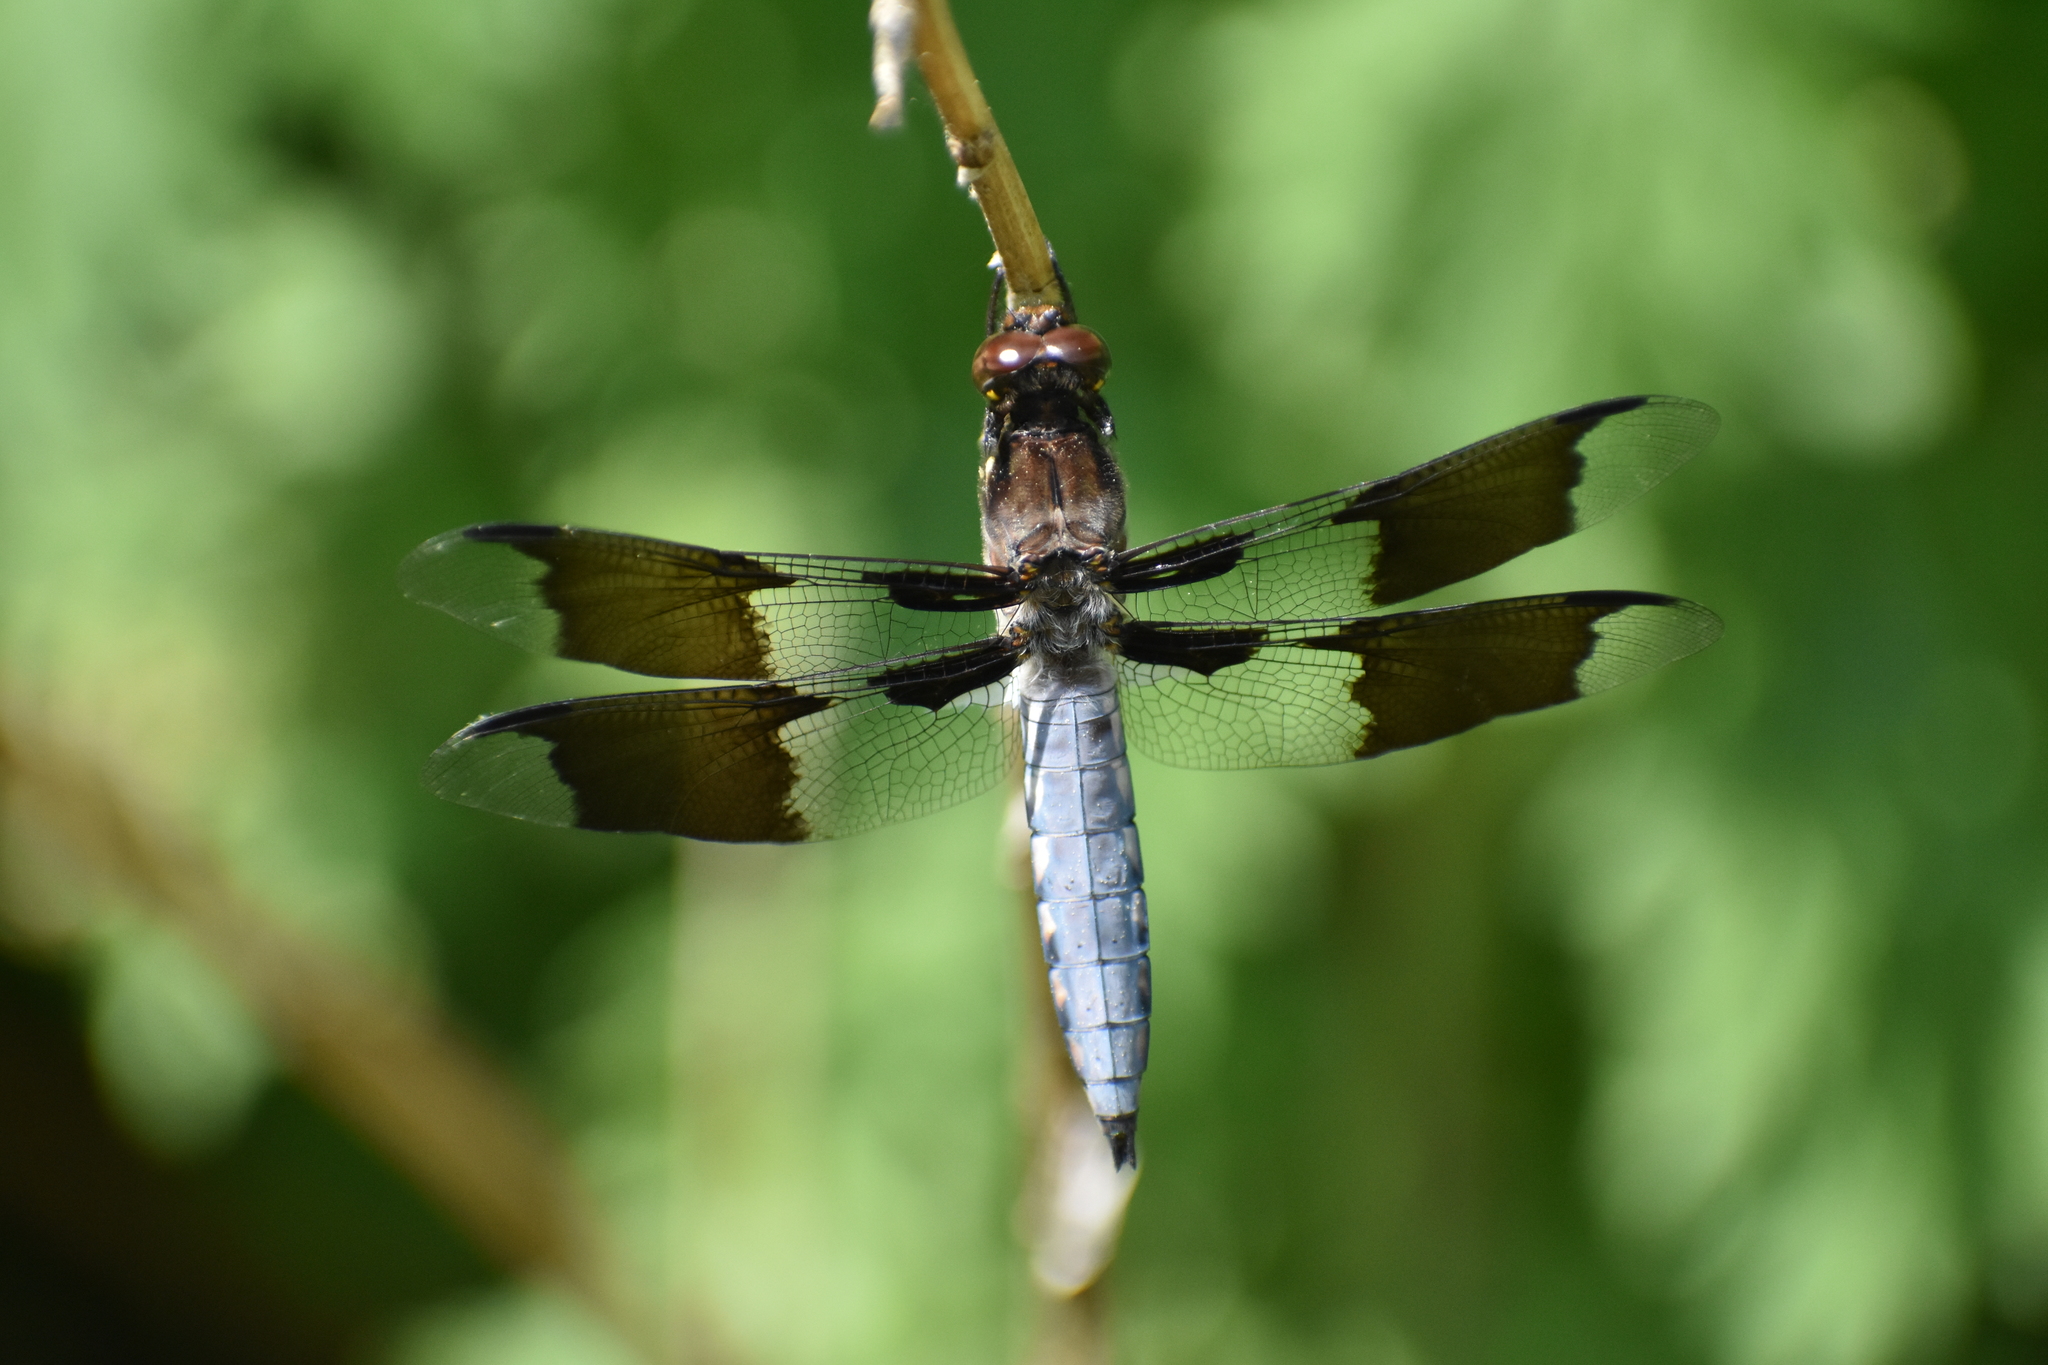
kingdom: Animalia
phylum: Arthropoda
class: Insecta
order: Odonata
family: Libellulidae
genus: Plathemis
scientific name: Plathemis lydia
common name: Common whitetail
